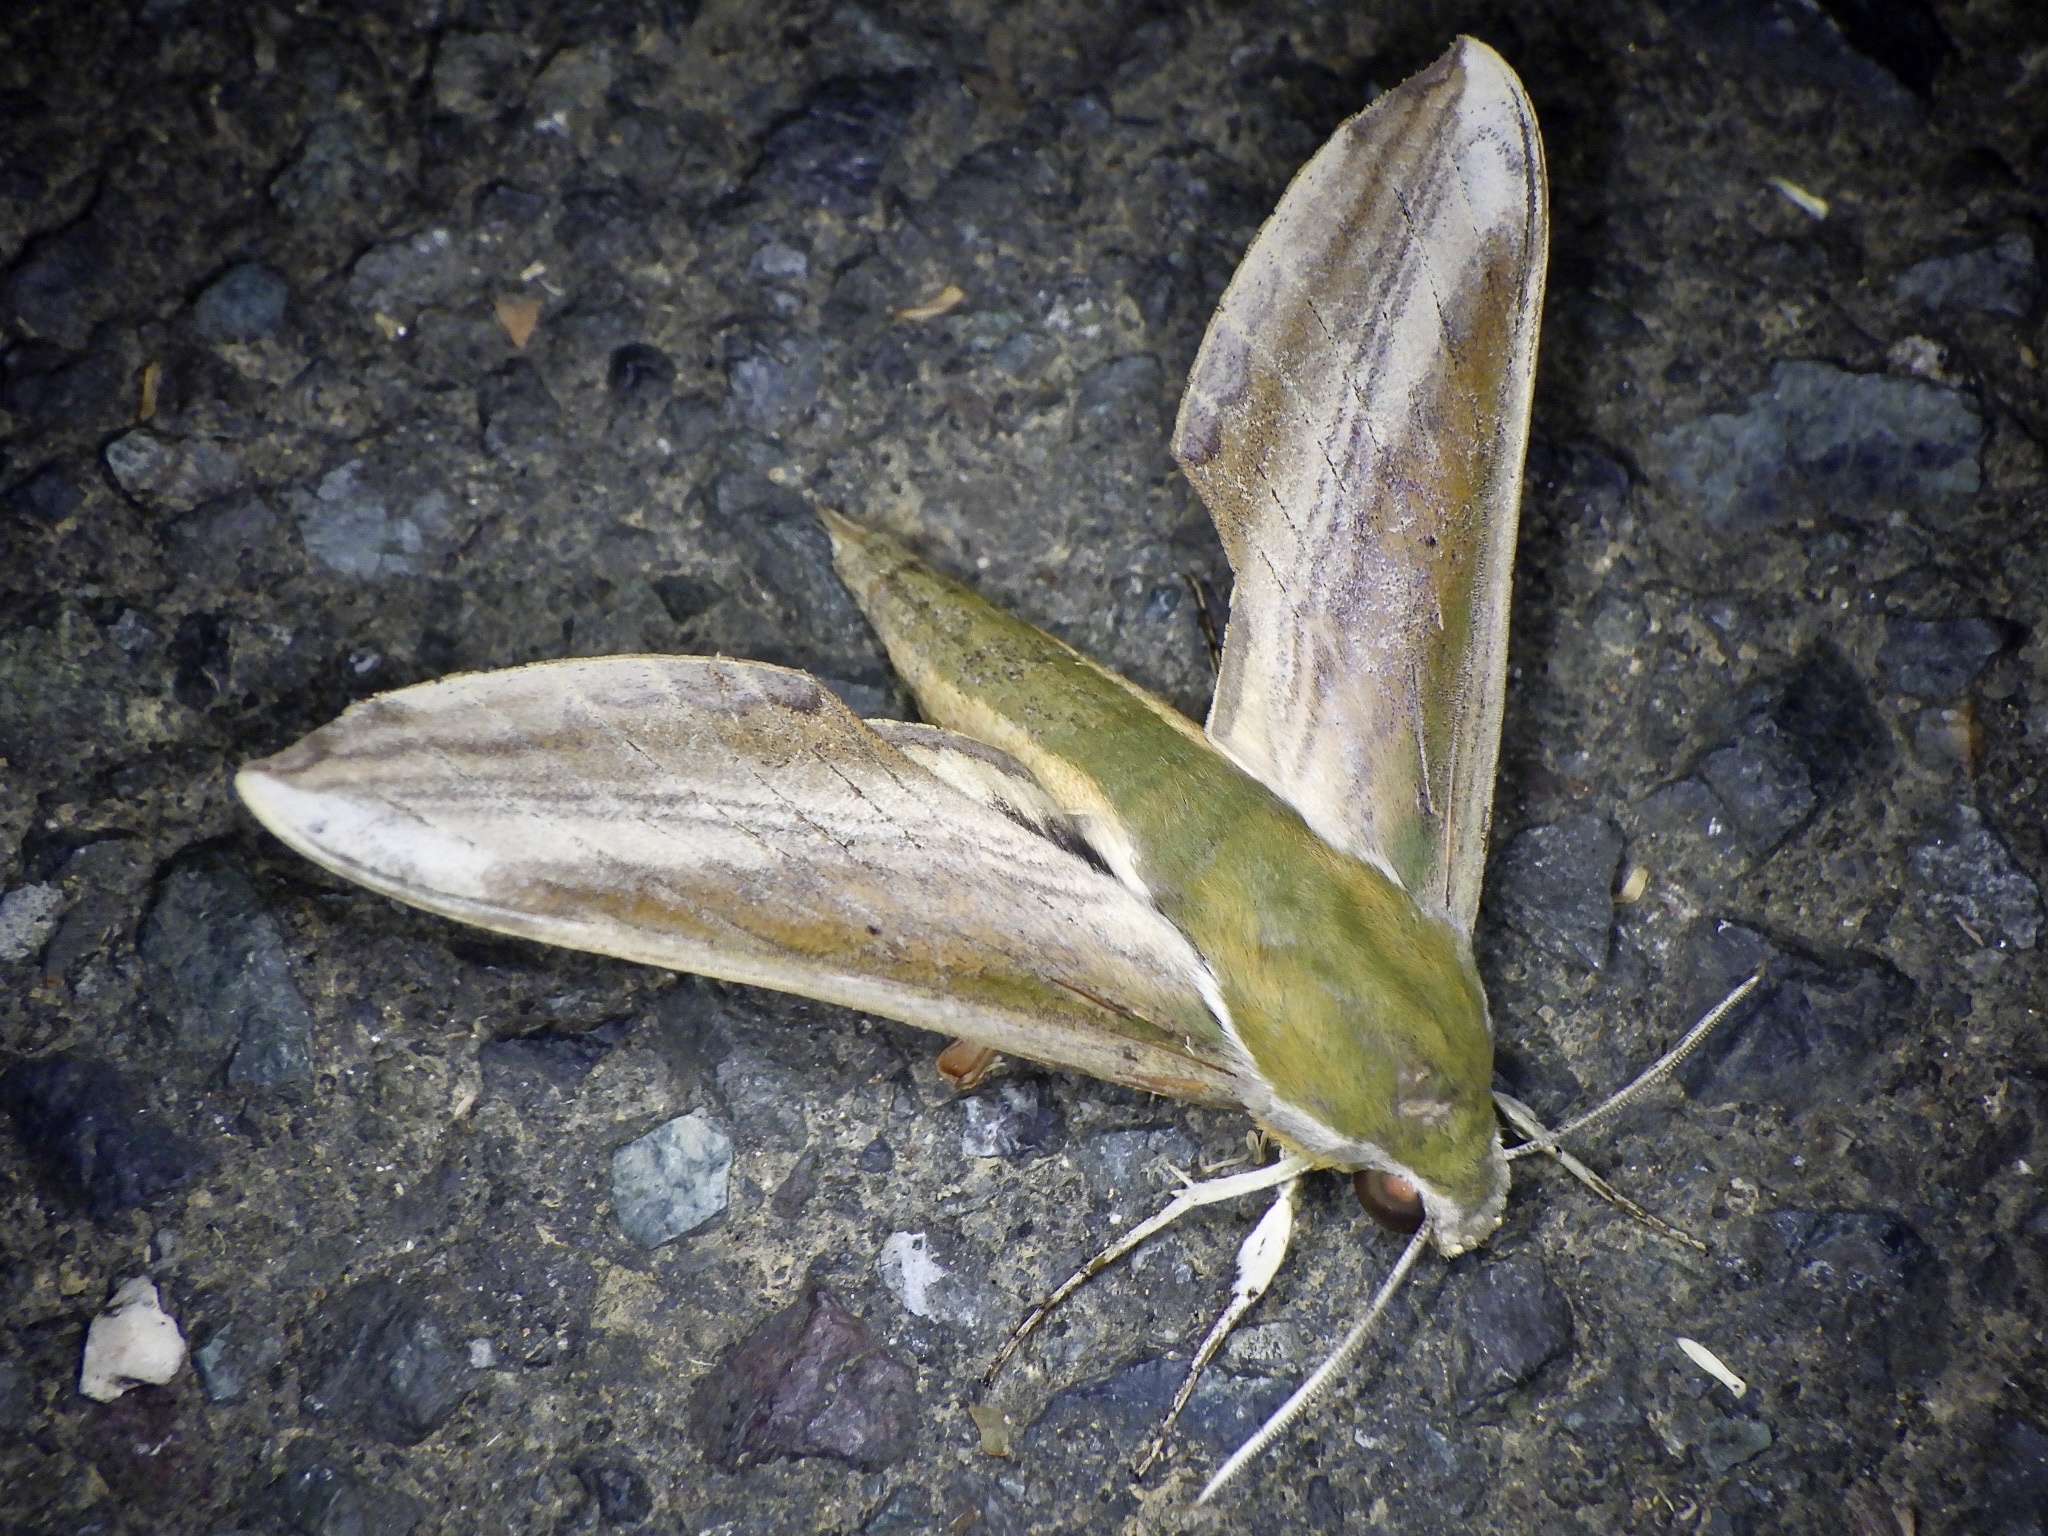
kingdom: Animalia
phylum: Arthropoda
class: Insecta
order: Lepidoptera
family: Sphingidae
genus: Theretra
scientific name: Theretra nessus
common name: Yam hawk moth
